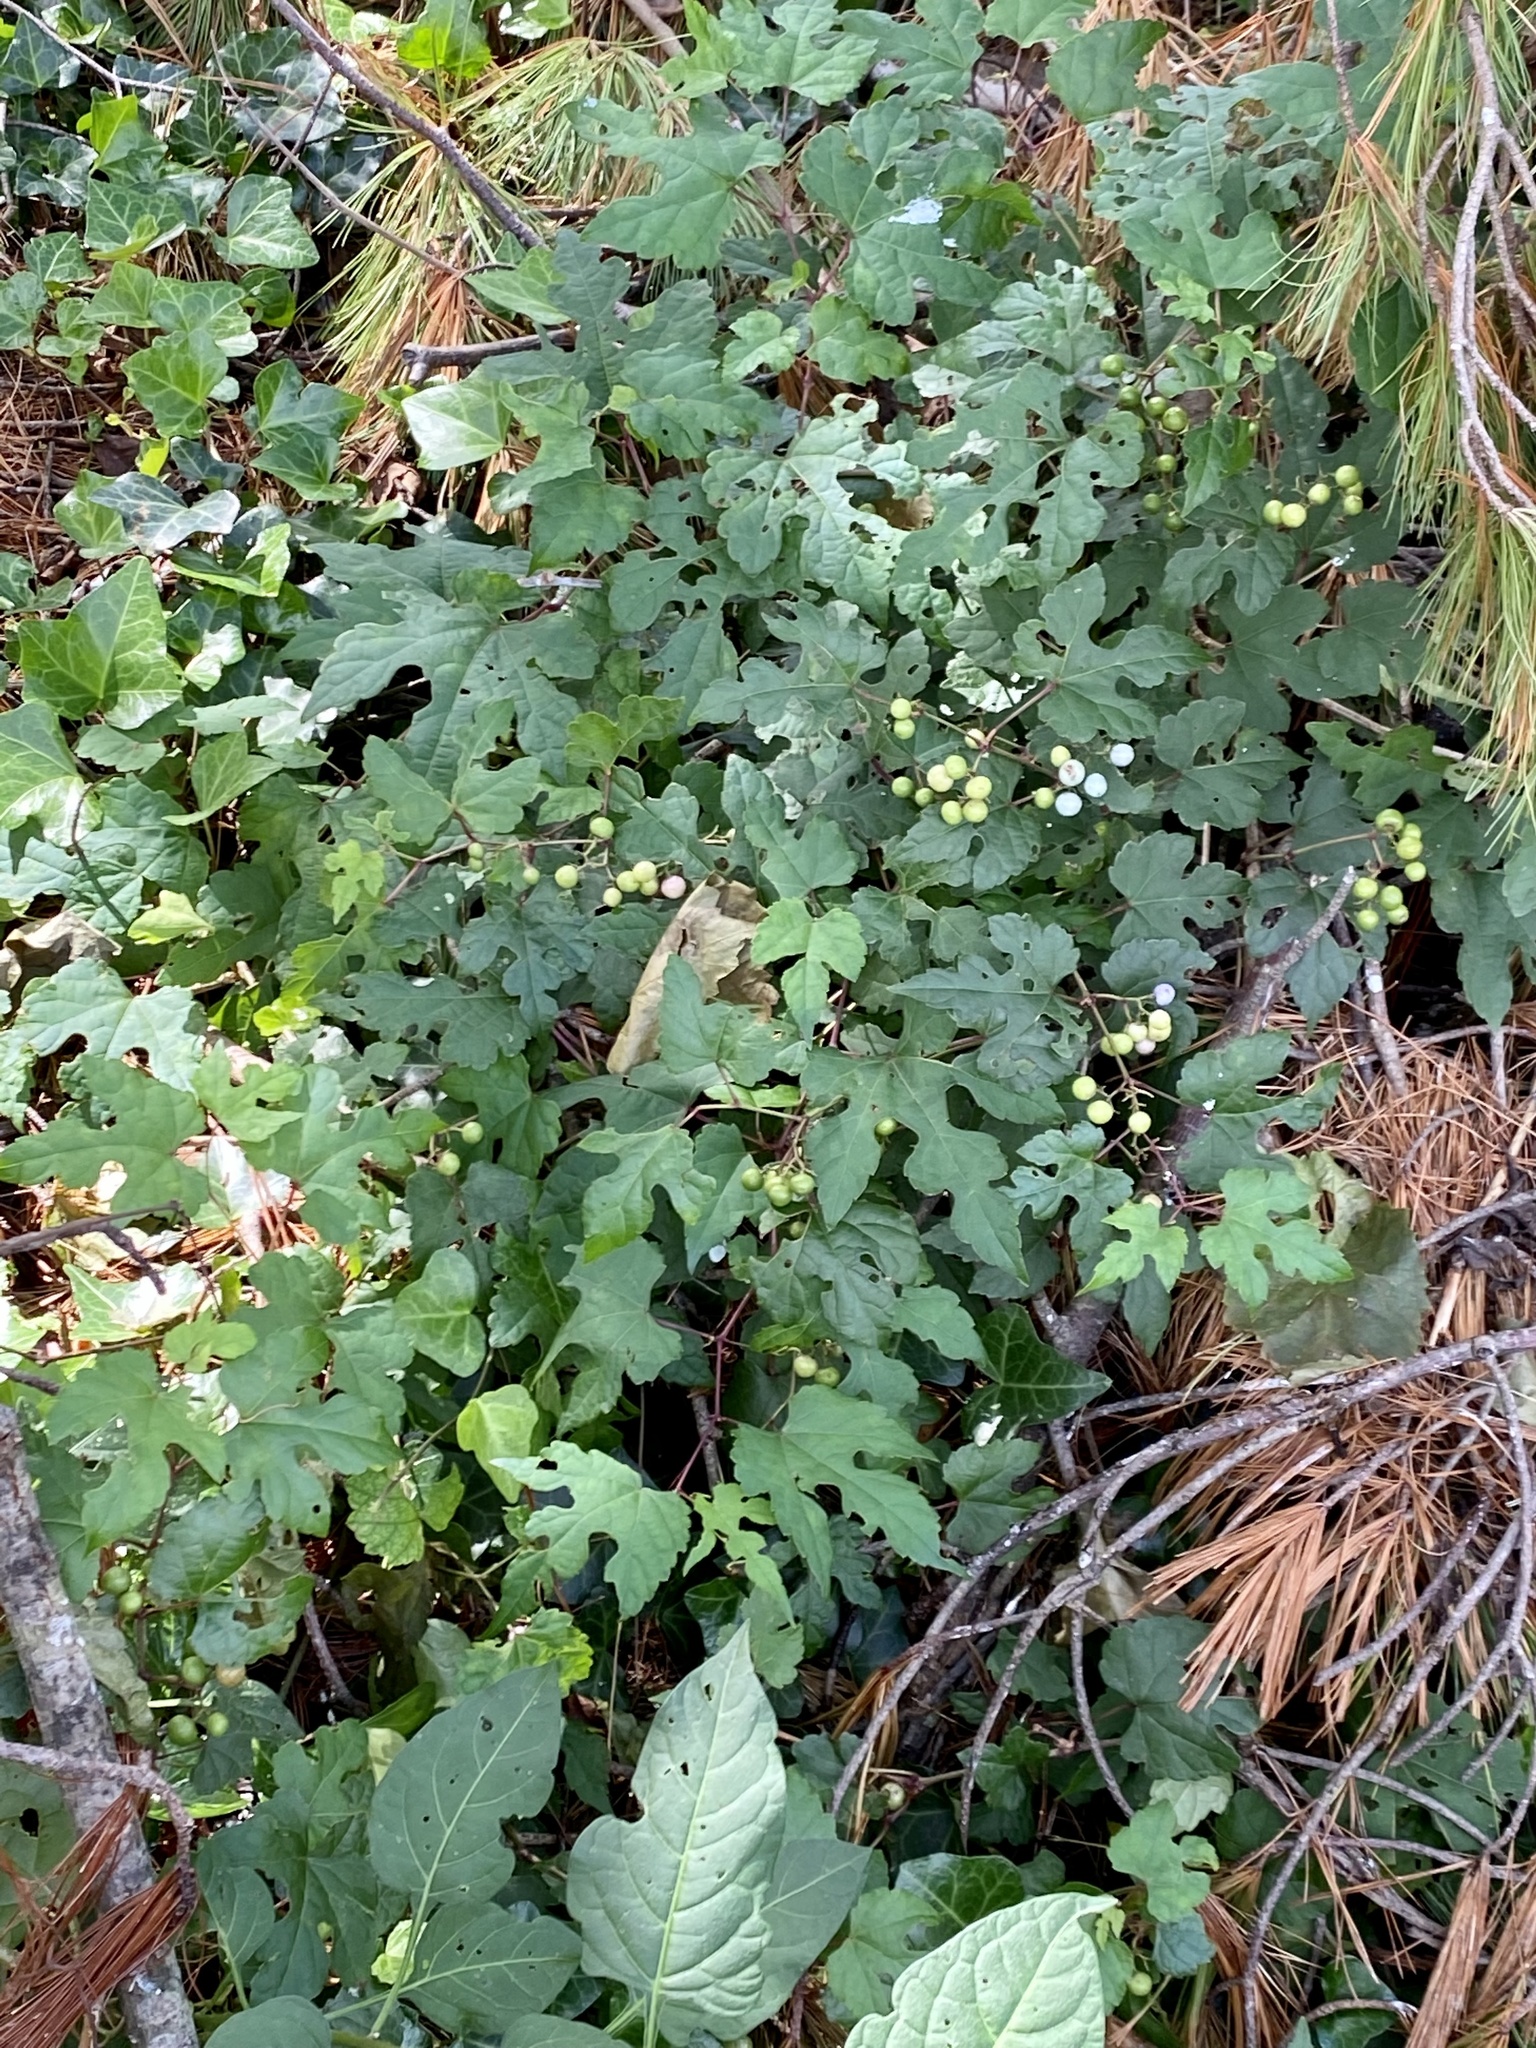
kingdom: Plantae
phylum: Tracheophyta
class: Magnoliopsida
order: Vitales
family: Vitaceae
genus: Ampelopsis
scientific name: Ampelopsis glandulosa
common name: Amur peppervine
